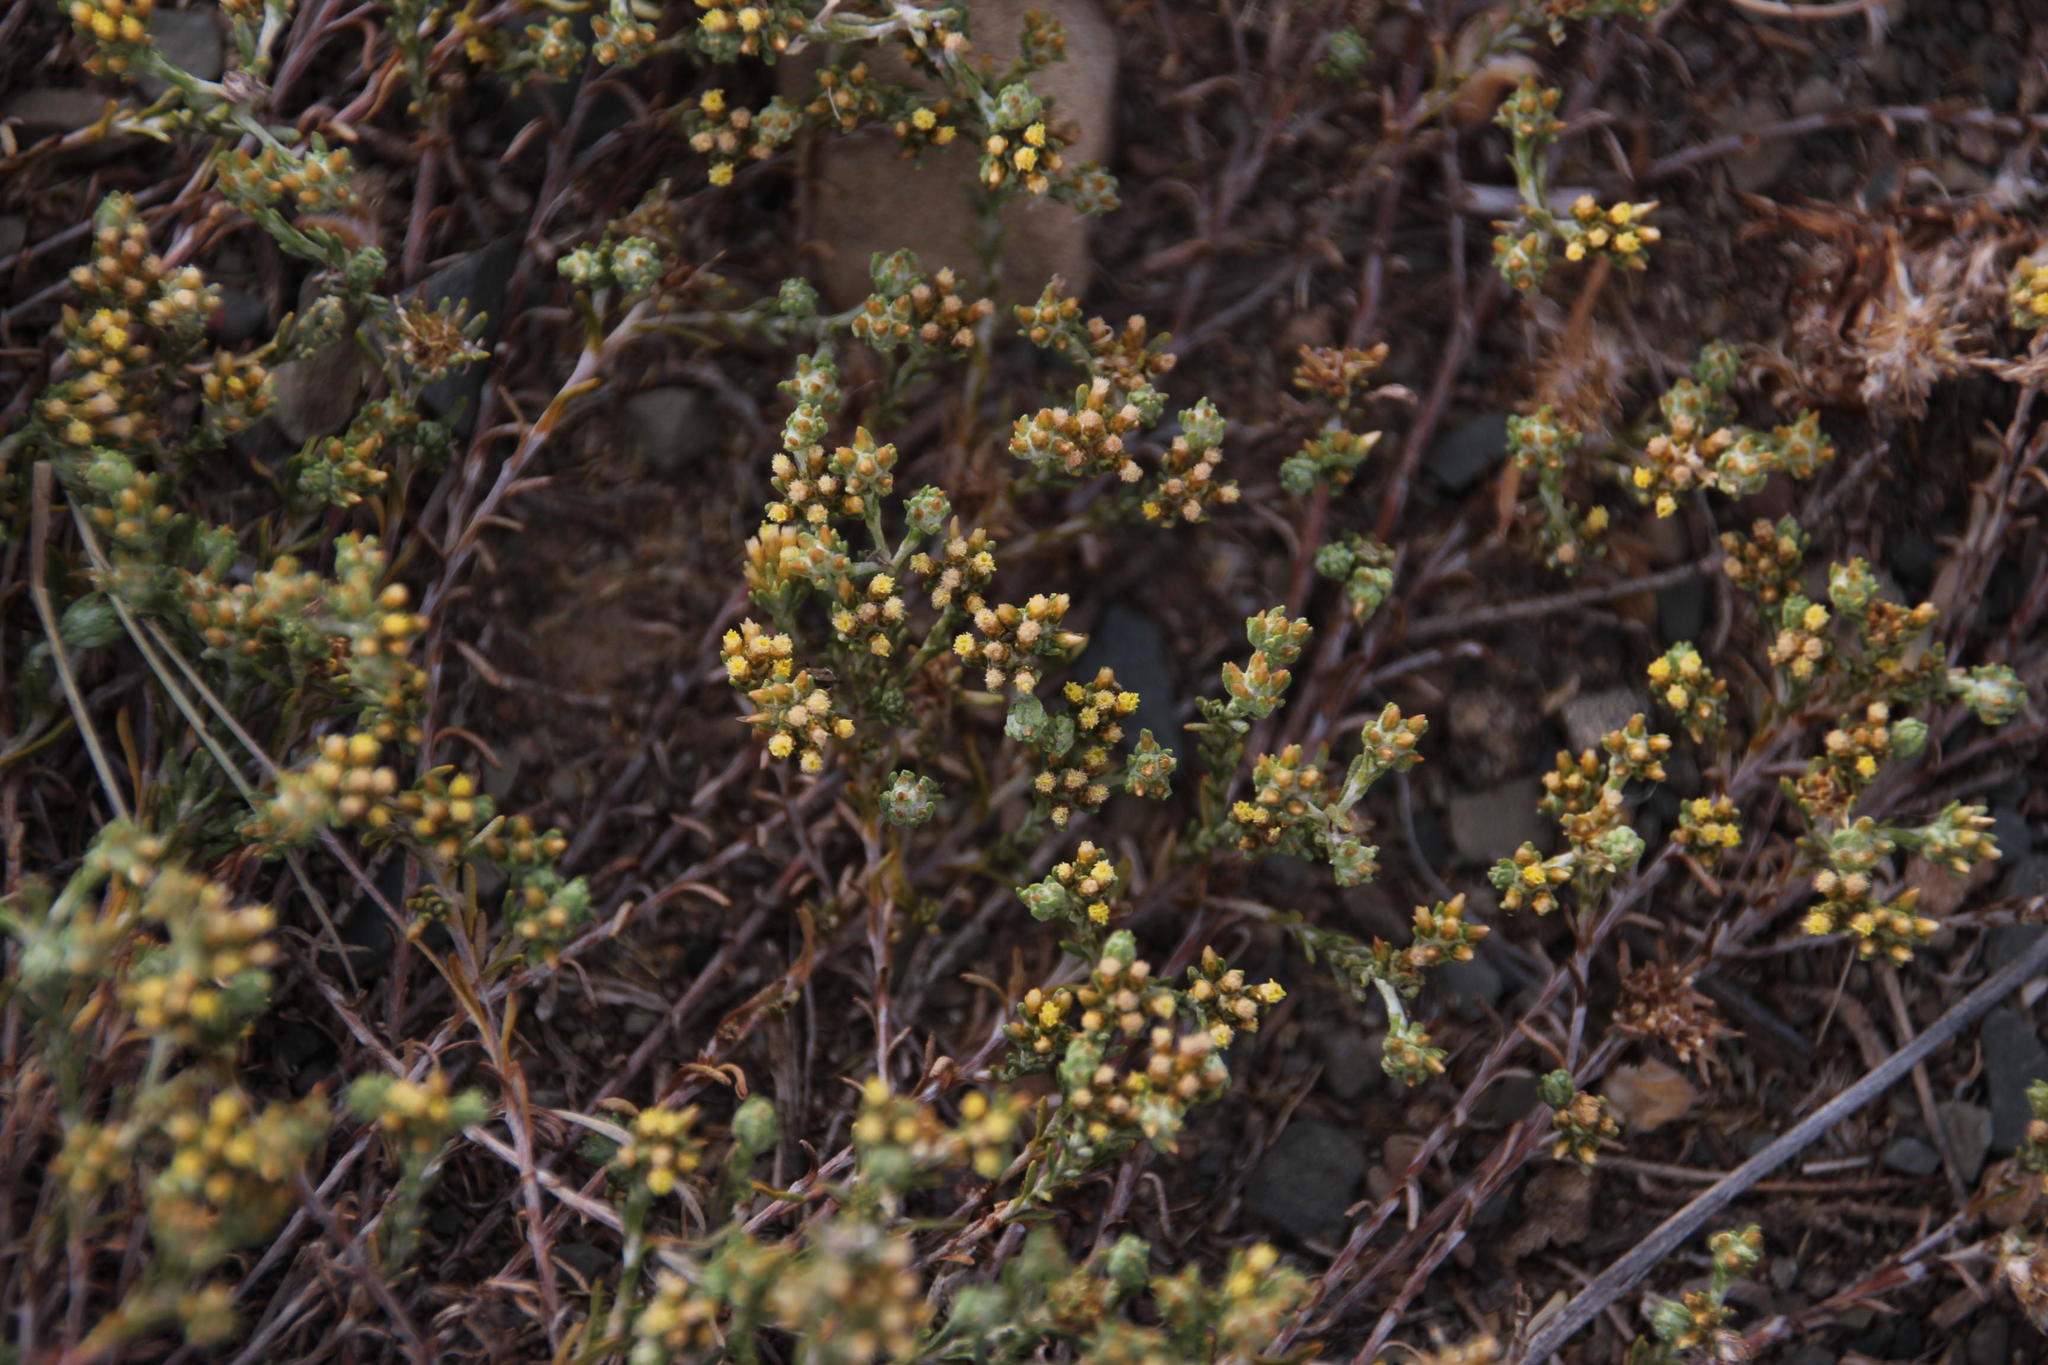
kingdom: Plantae
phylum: Tracheophyta
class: Magnoliopsida
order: Asterales
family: Asteraceae
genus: Helichrysum
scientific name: Helichrysum asperum
